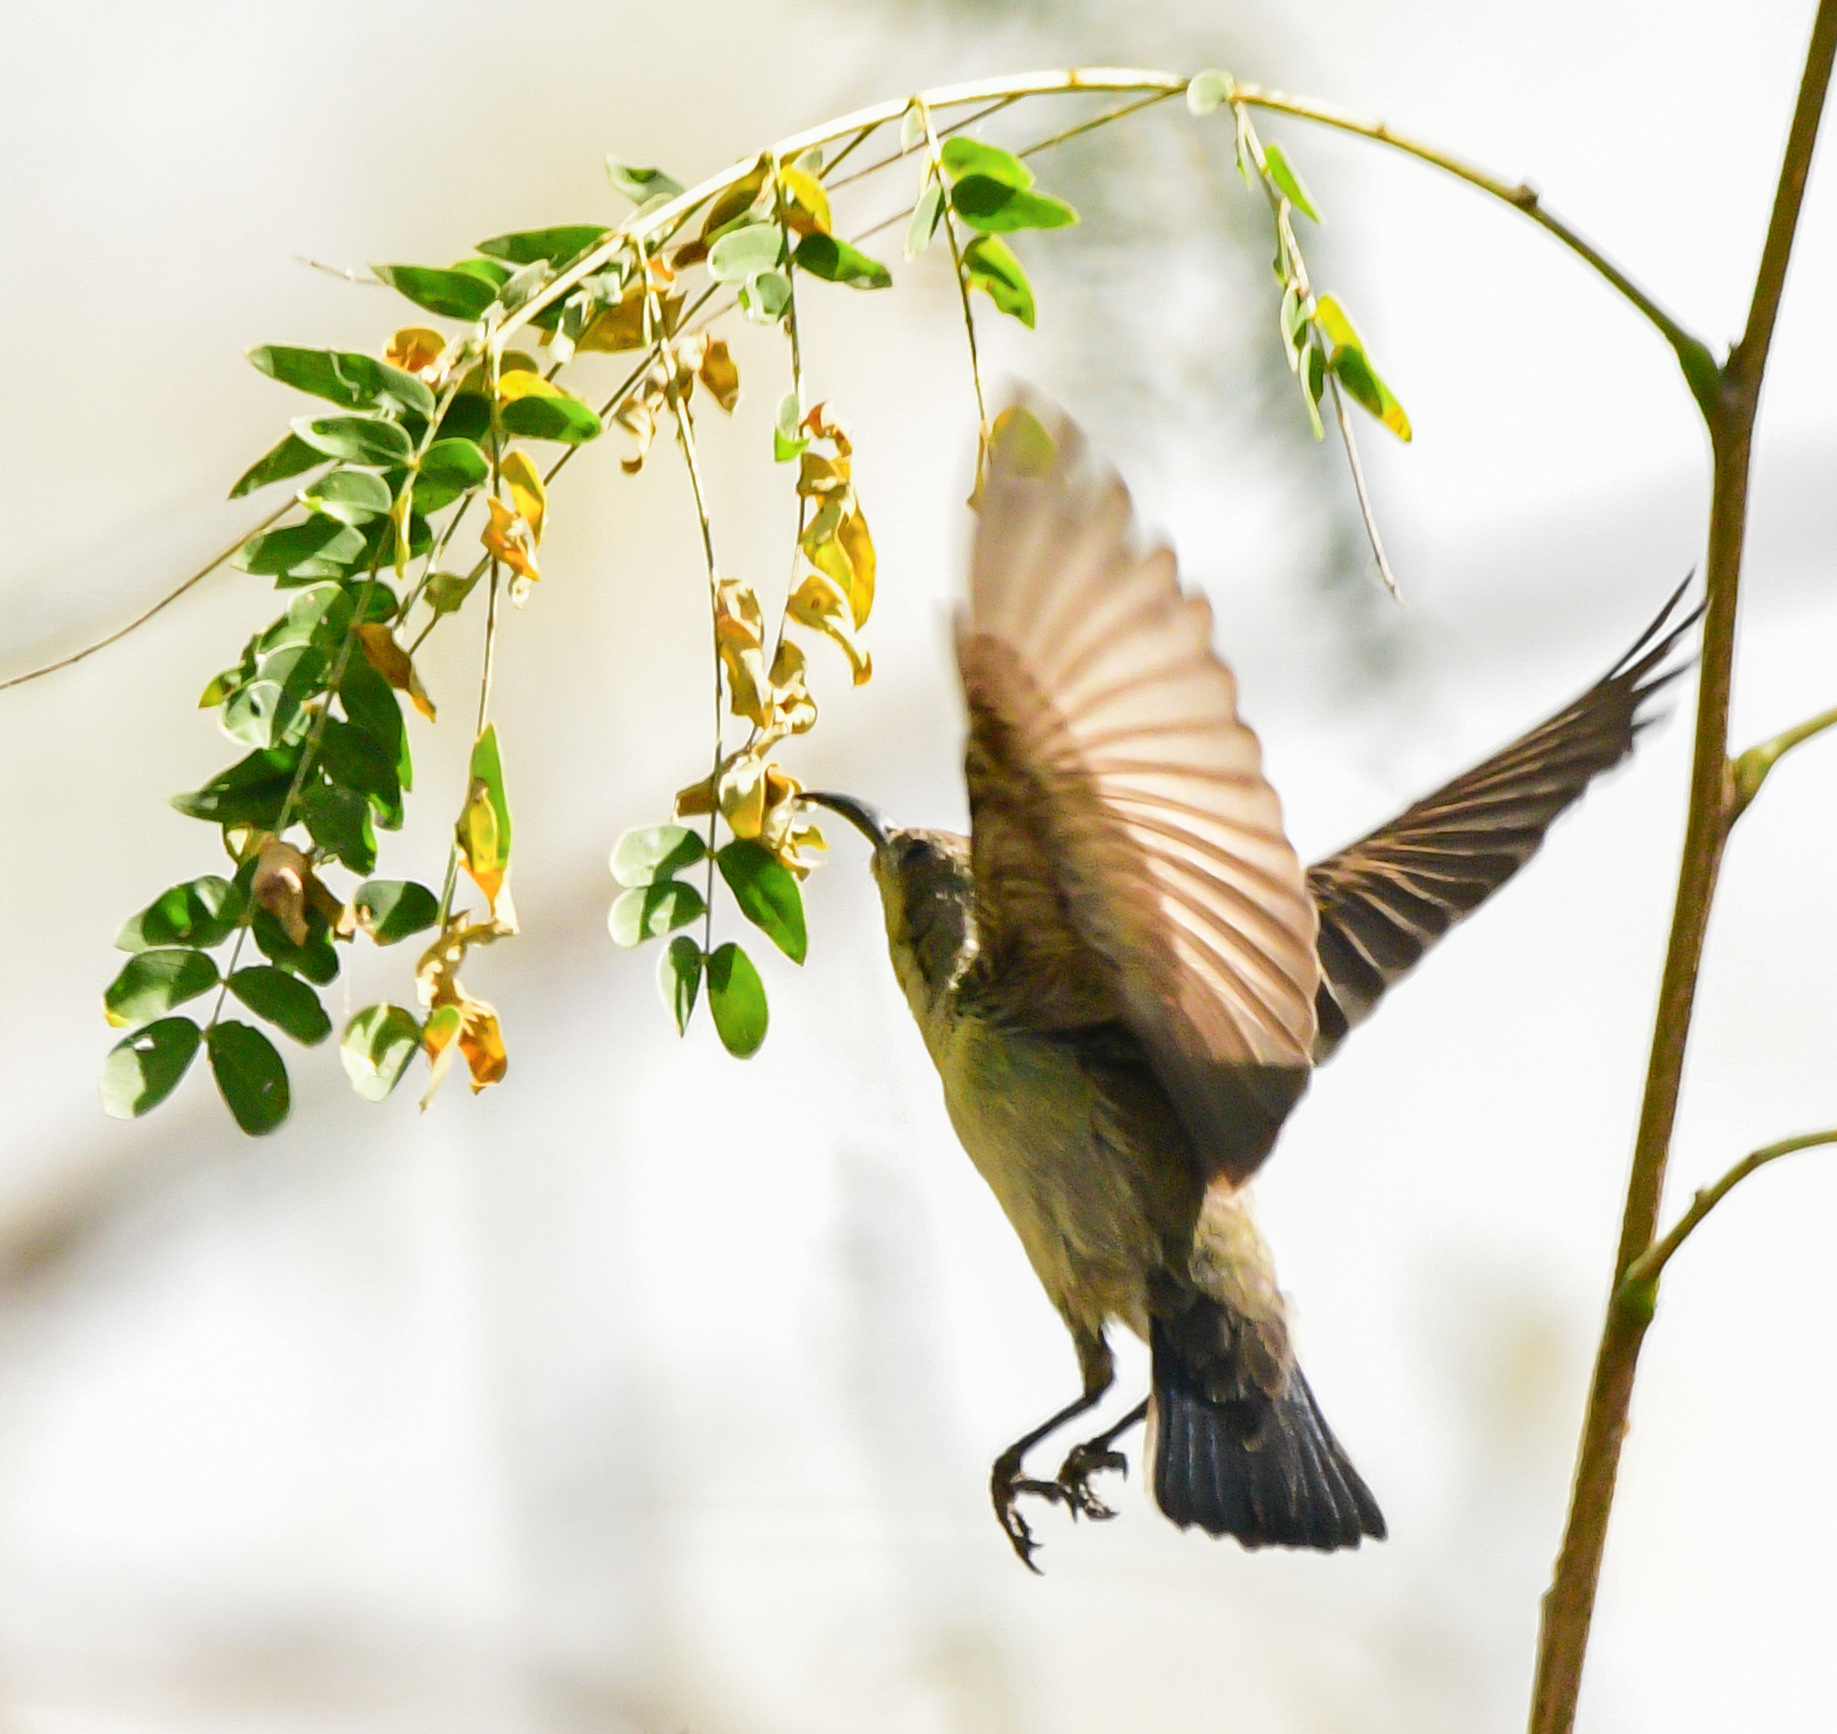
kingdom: Animalia
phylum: Chordata
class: Aves
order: Passeriformes
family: Nectariniidae
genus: Cinnyris
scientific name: Cinnyris asiaticus
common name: Purple sunbird
